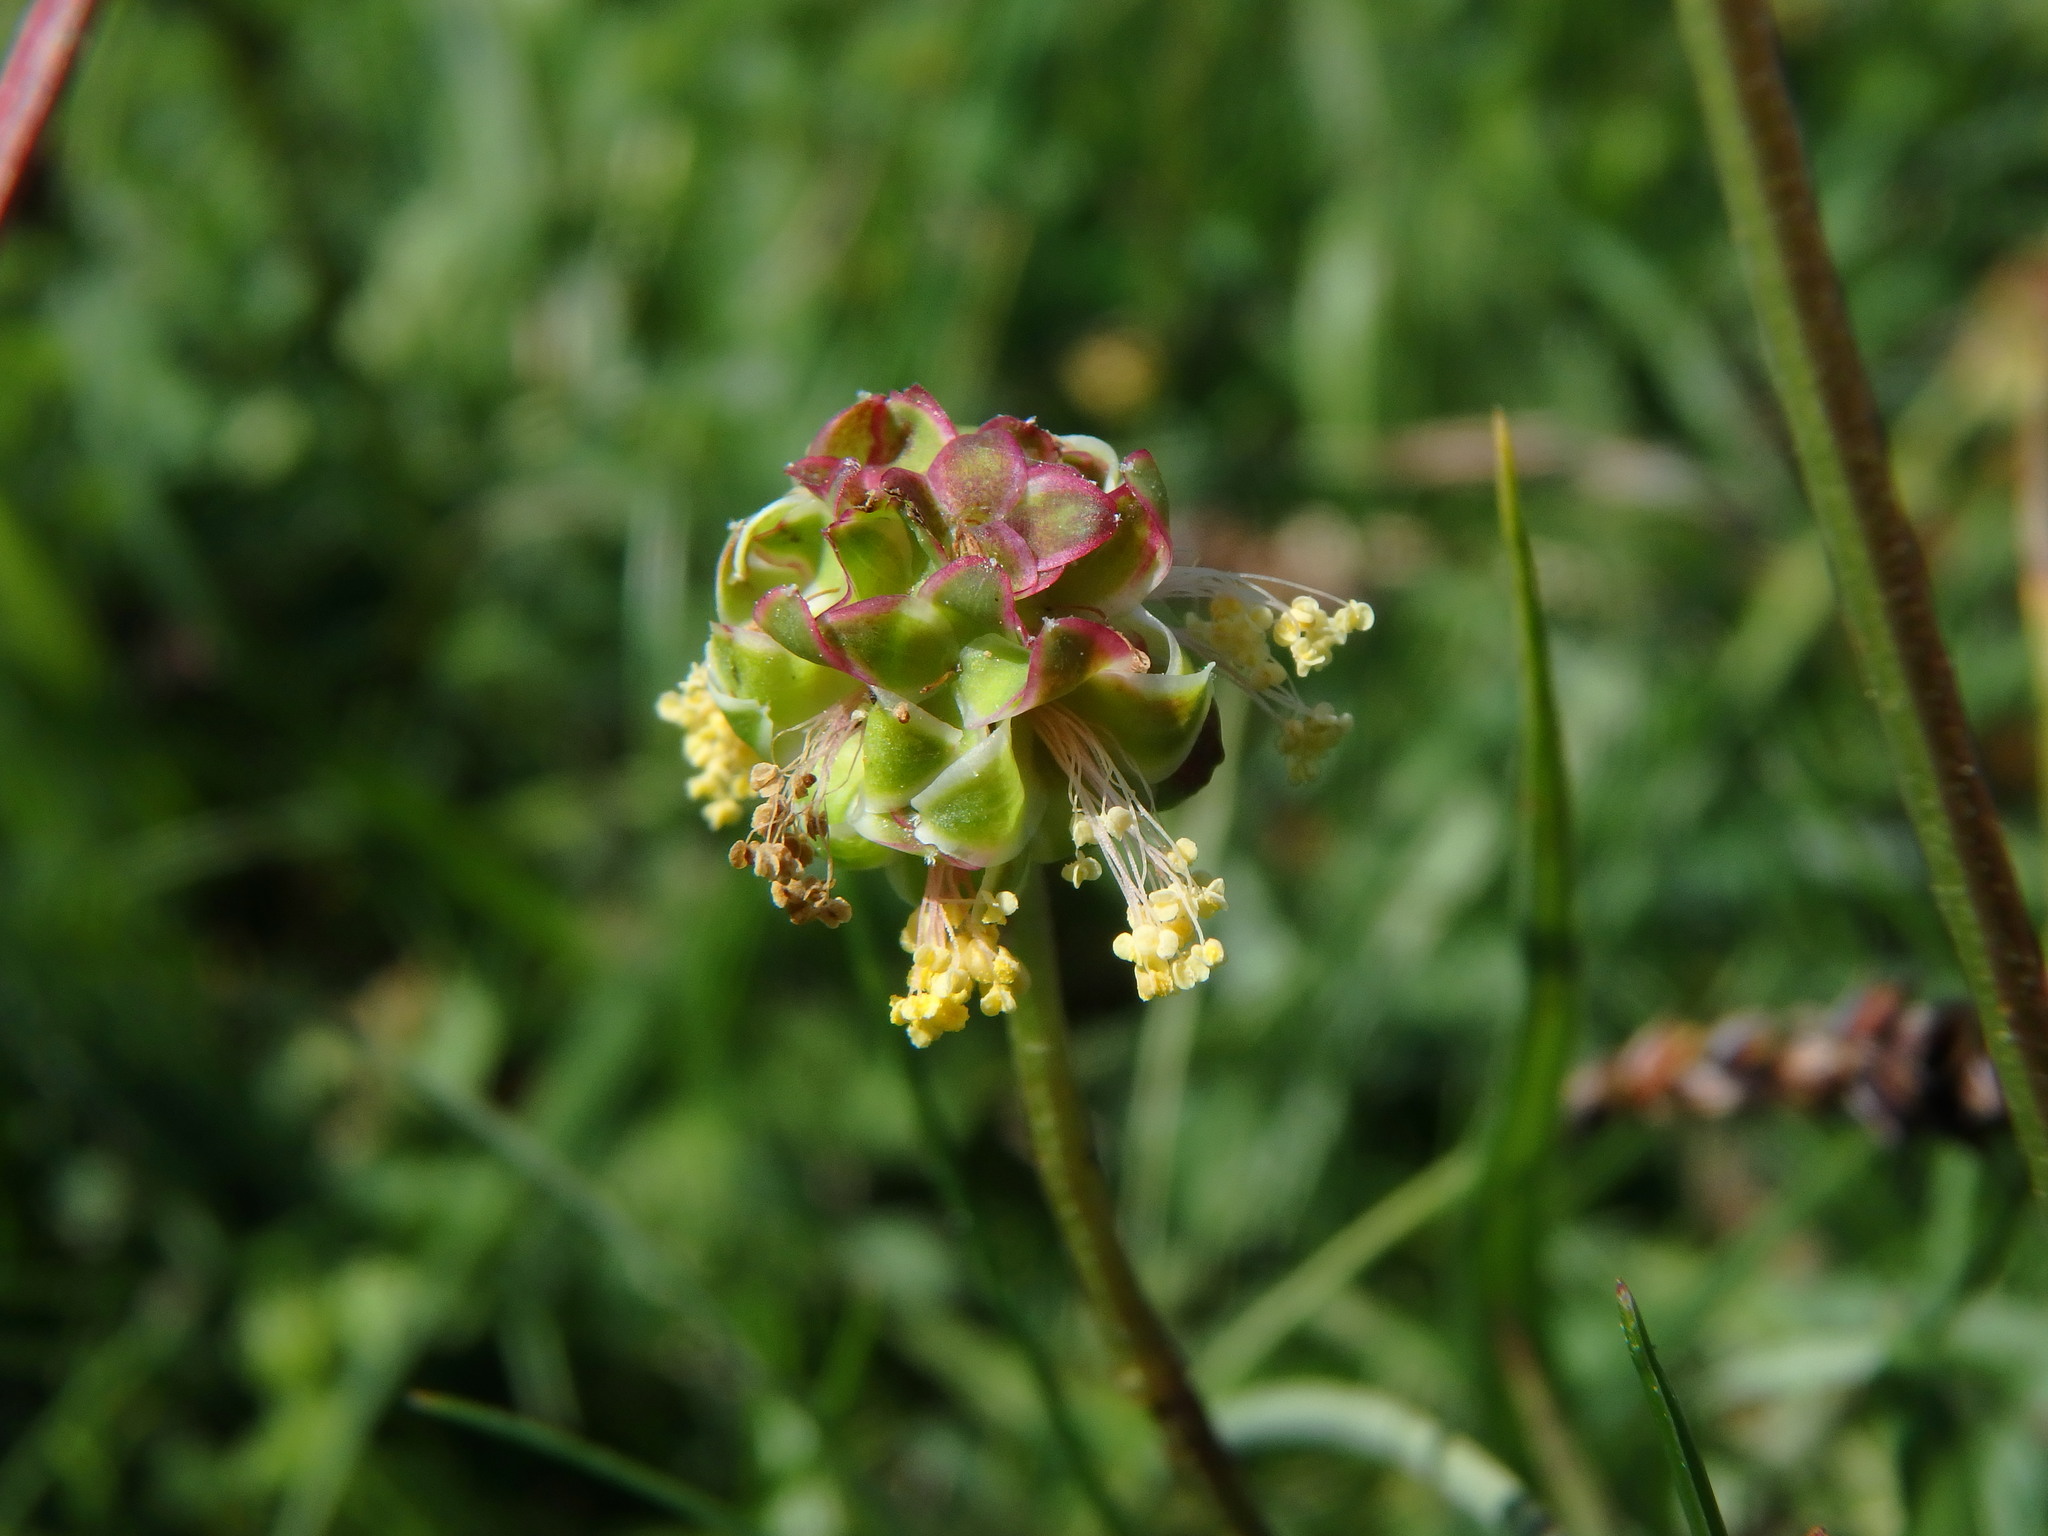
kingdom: Plantae
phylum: Tracheophyta
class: Magnoliopsida
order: Rosales
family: Rosaceae
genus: Poterium
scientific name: Poterium sanguisorba
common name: Salad burnet
